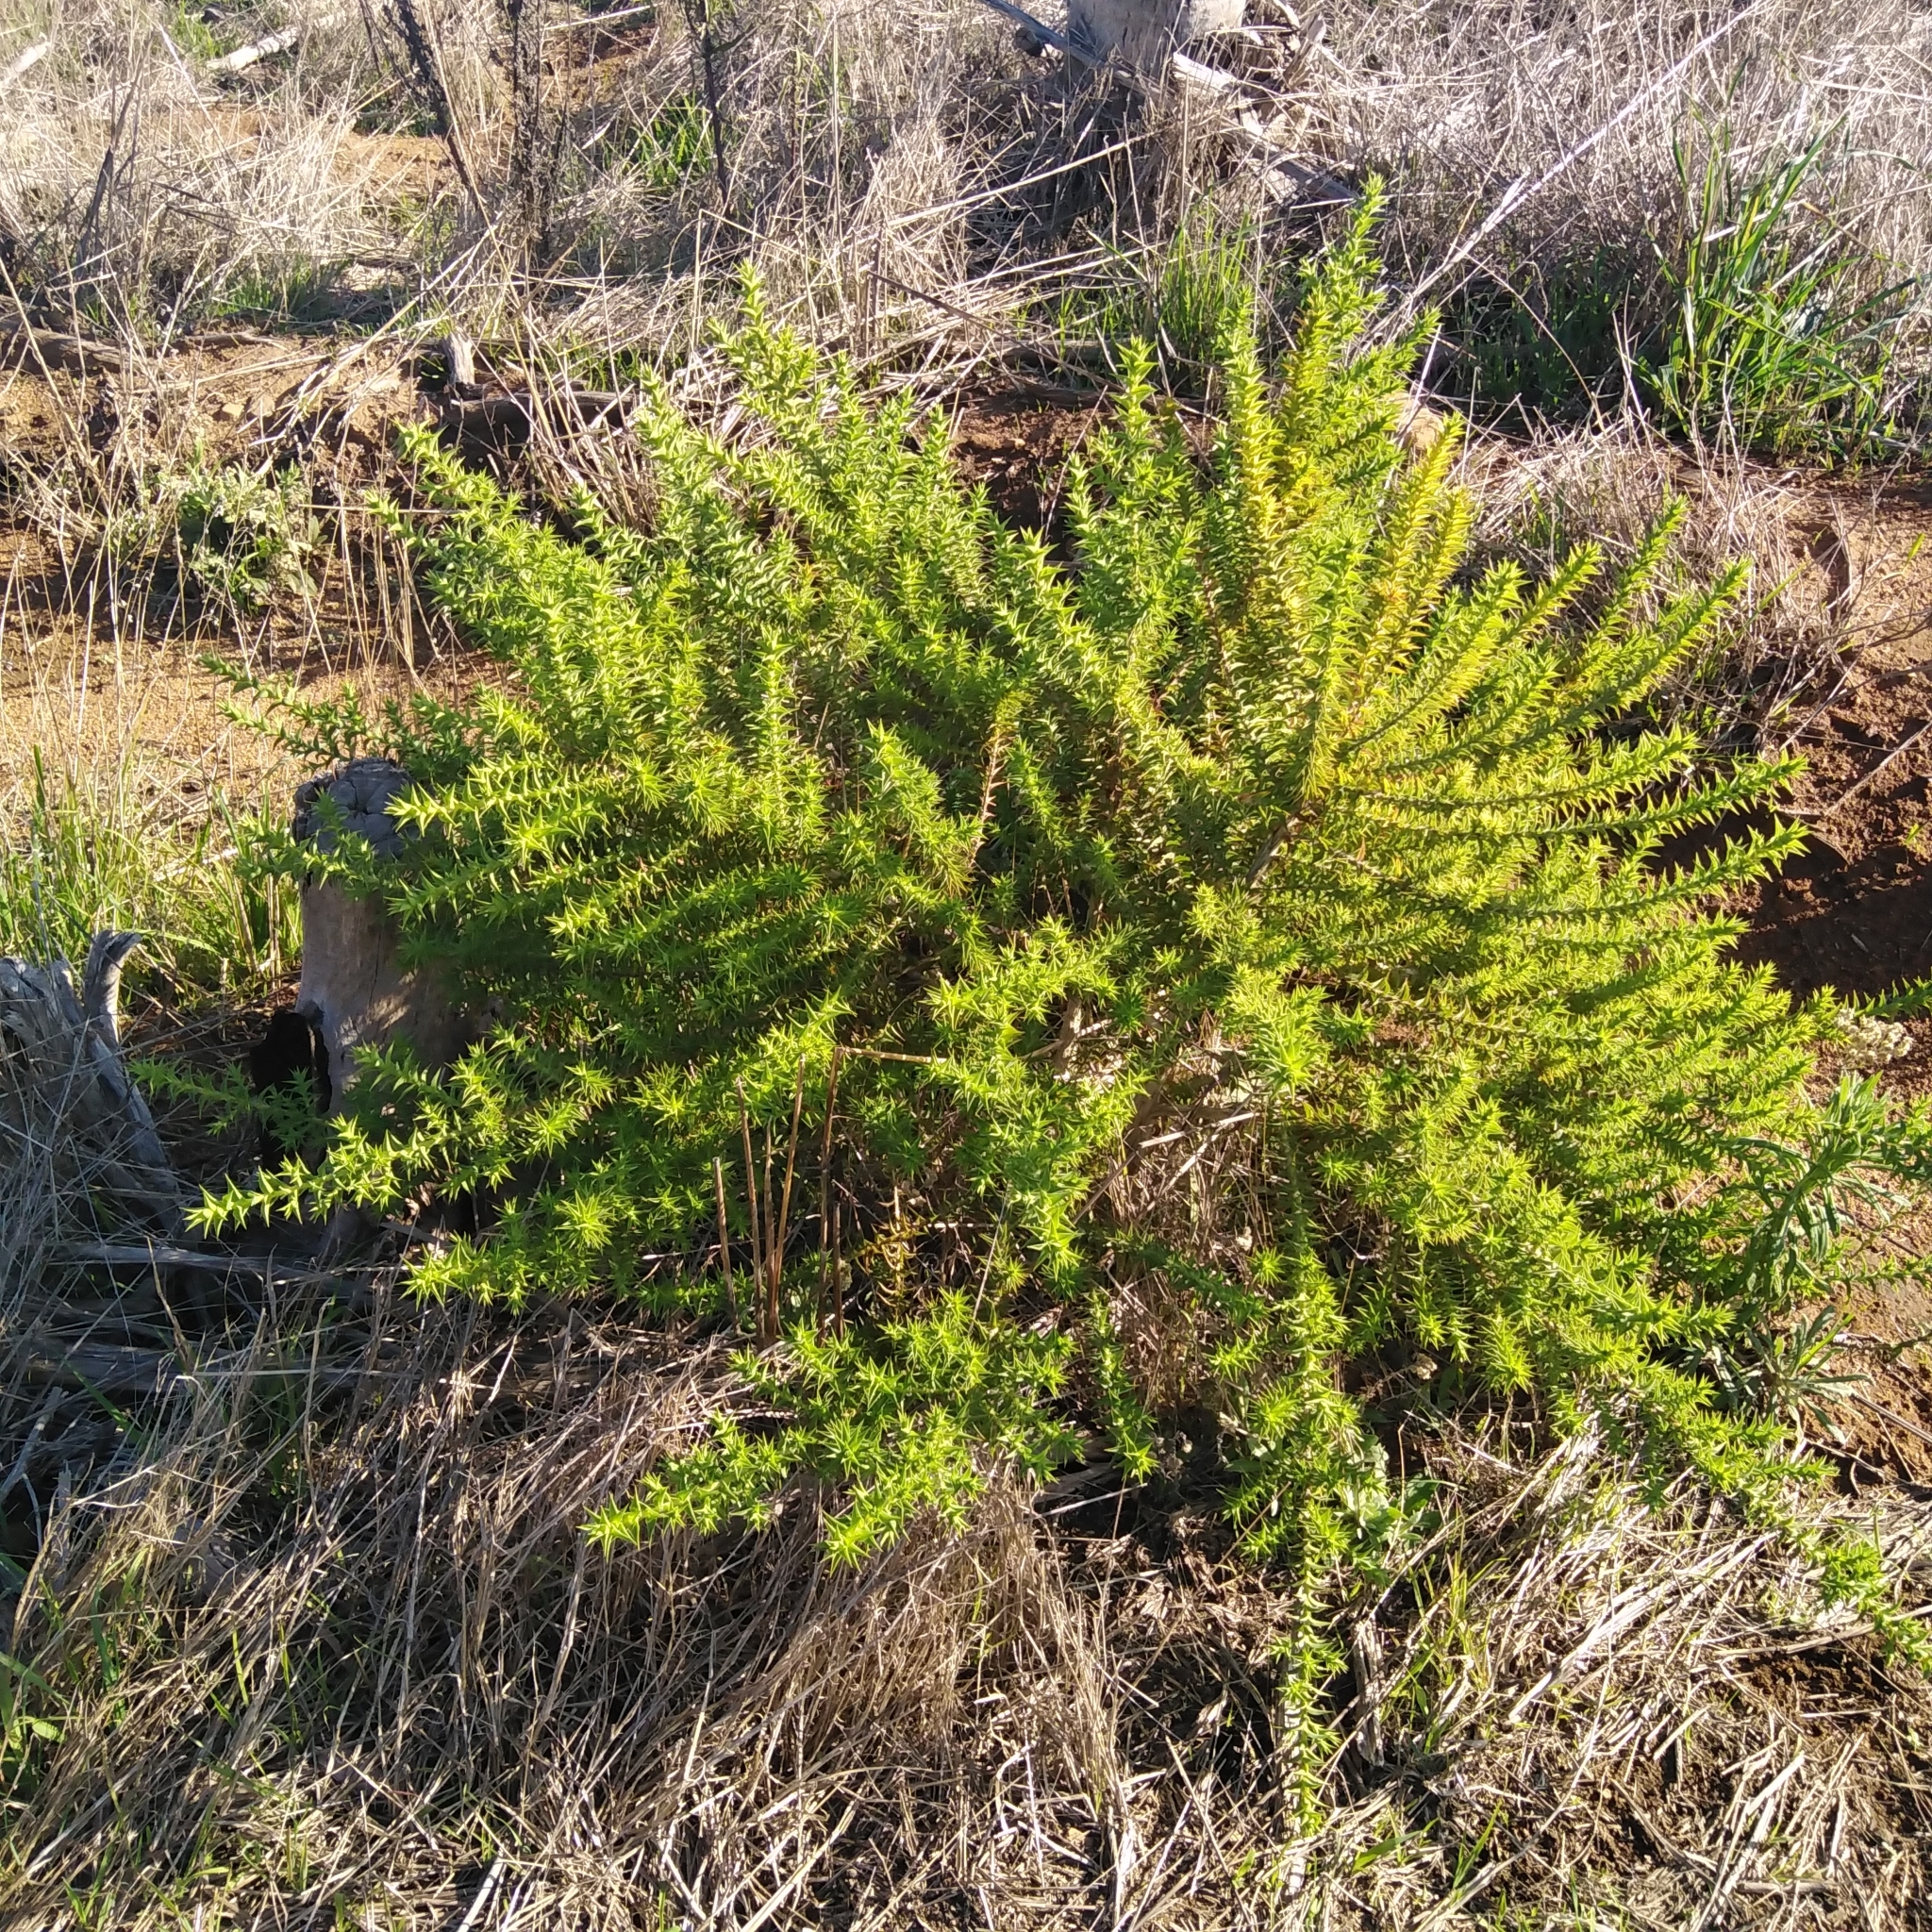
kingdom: Plantae
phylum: Tracheophyta
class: Magnoliopsida
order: Fabales
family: Fabaceae
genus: Aspalathus
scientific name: Aspalathus cordata
